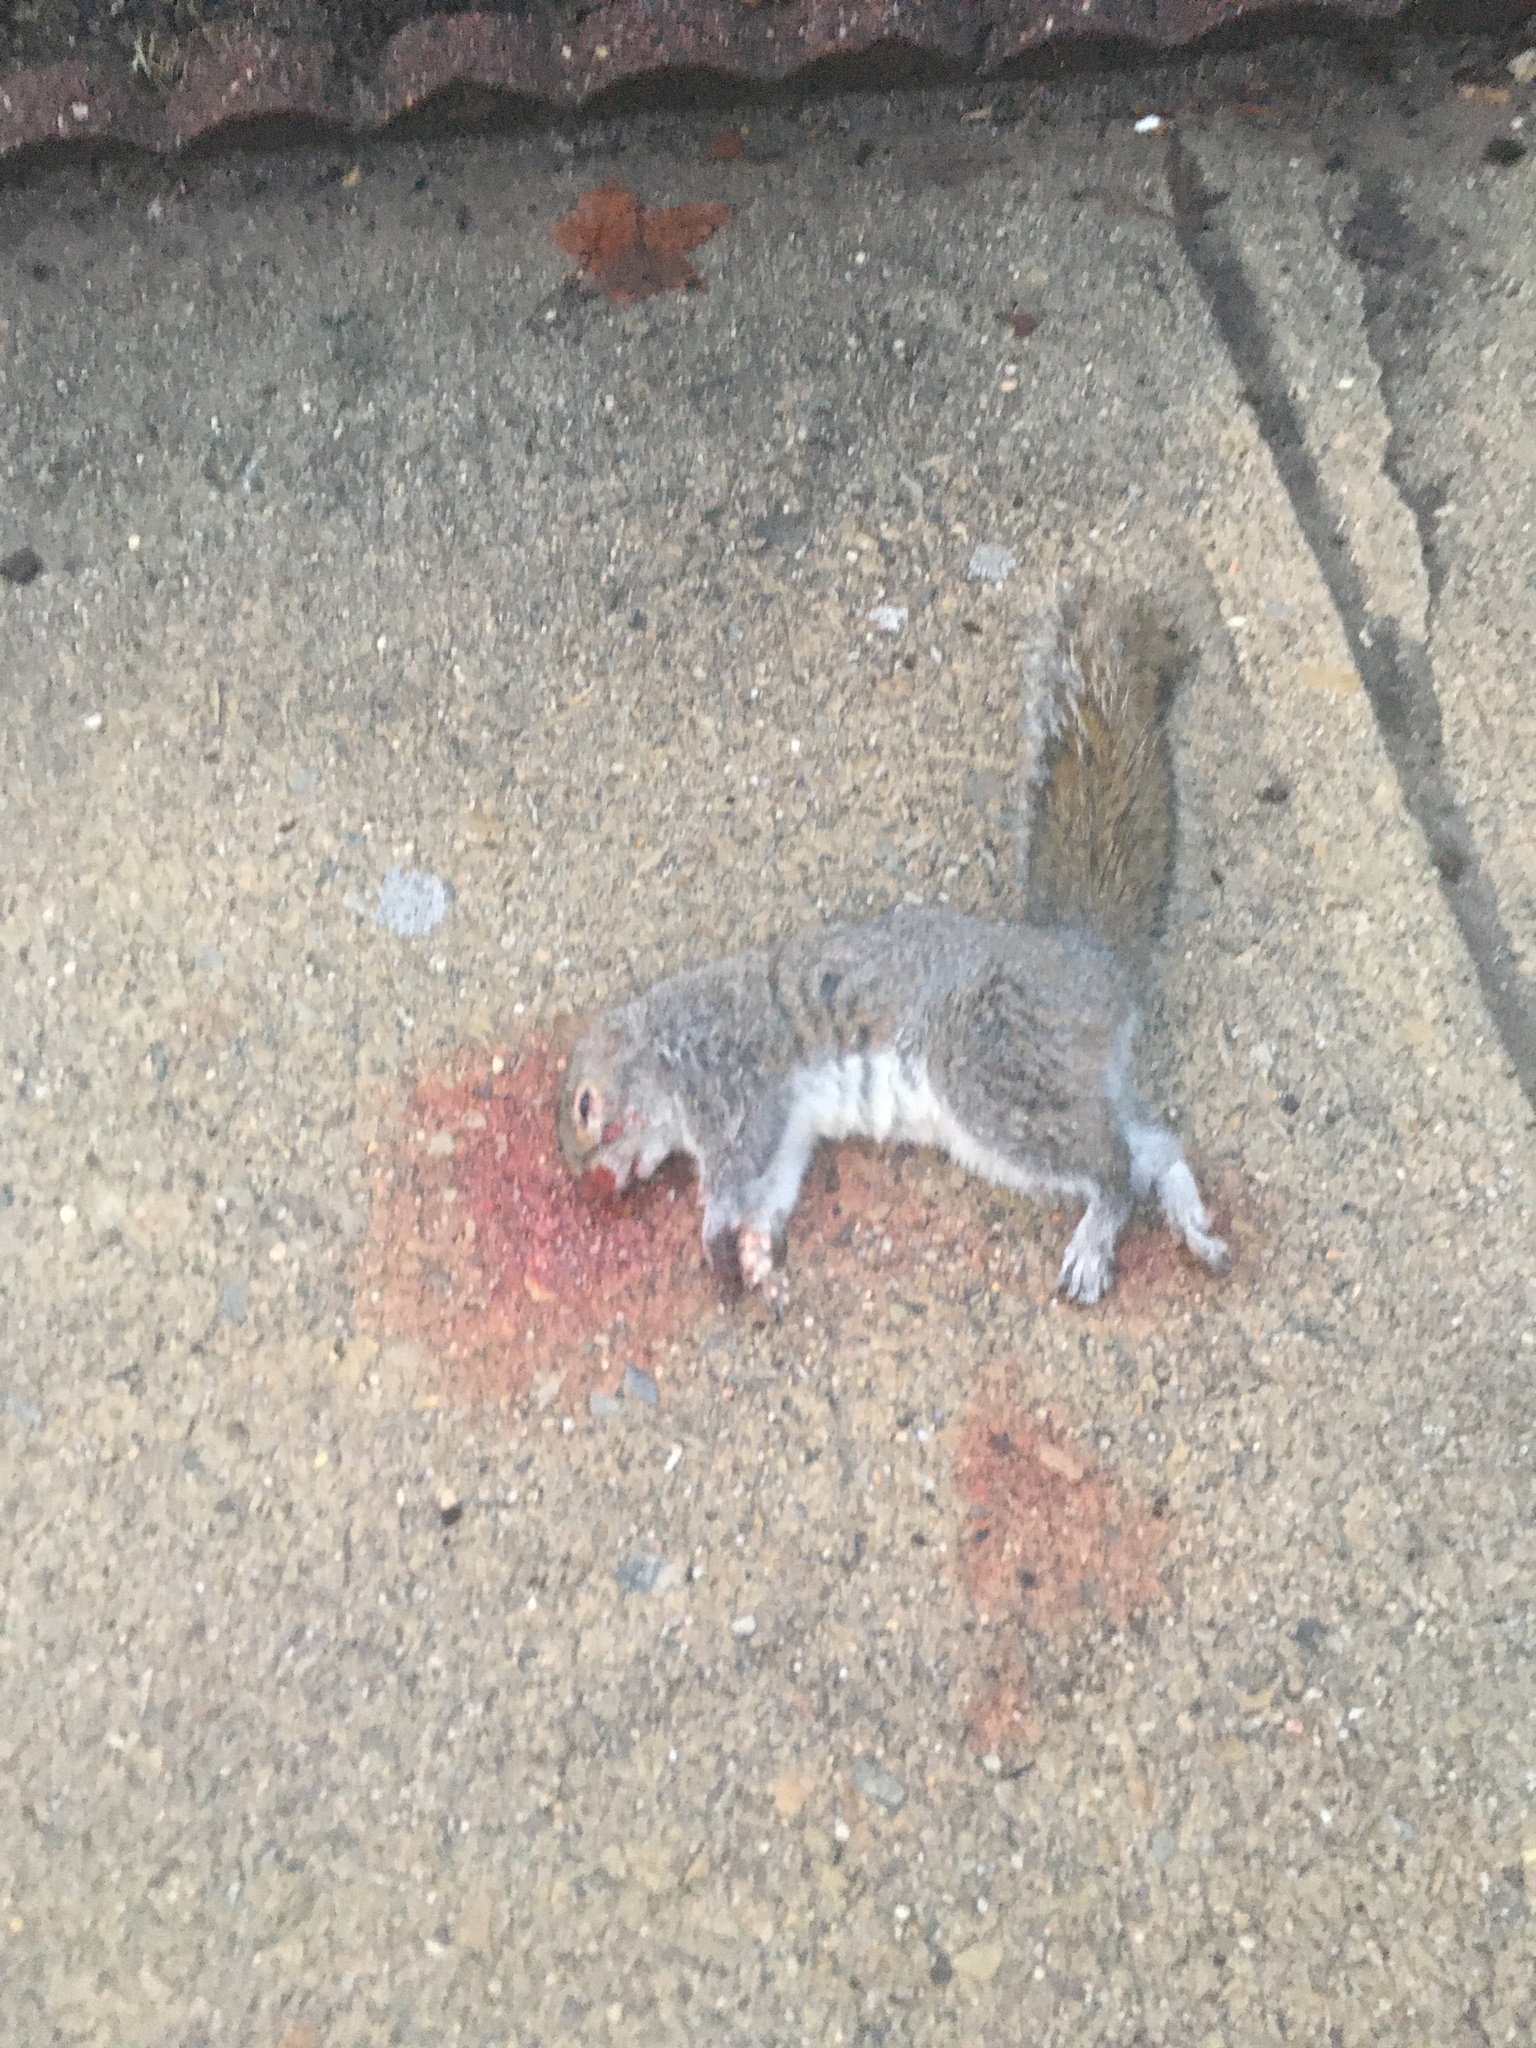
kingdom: Animalia
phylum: Chordata
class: Mammalia
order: Rodentia
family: Sciuridae
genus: Sciurus
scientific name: Sciurus carolinensis
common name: Eastern gray squirrel
